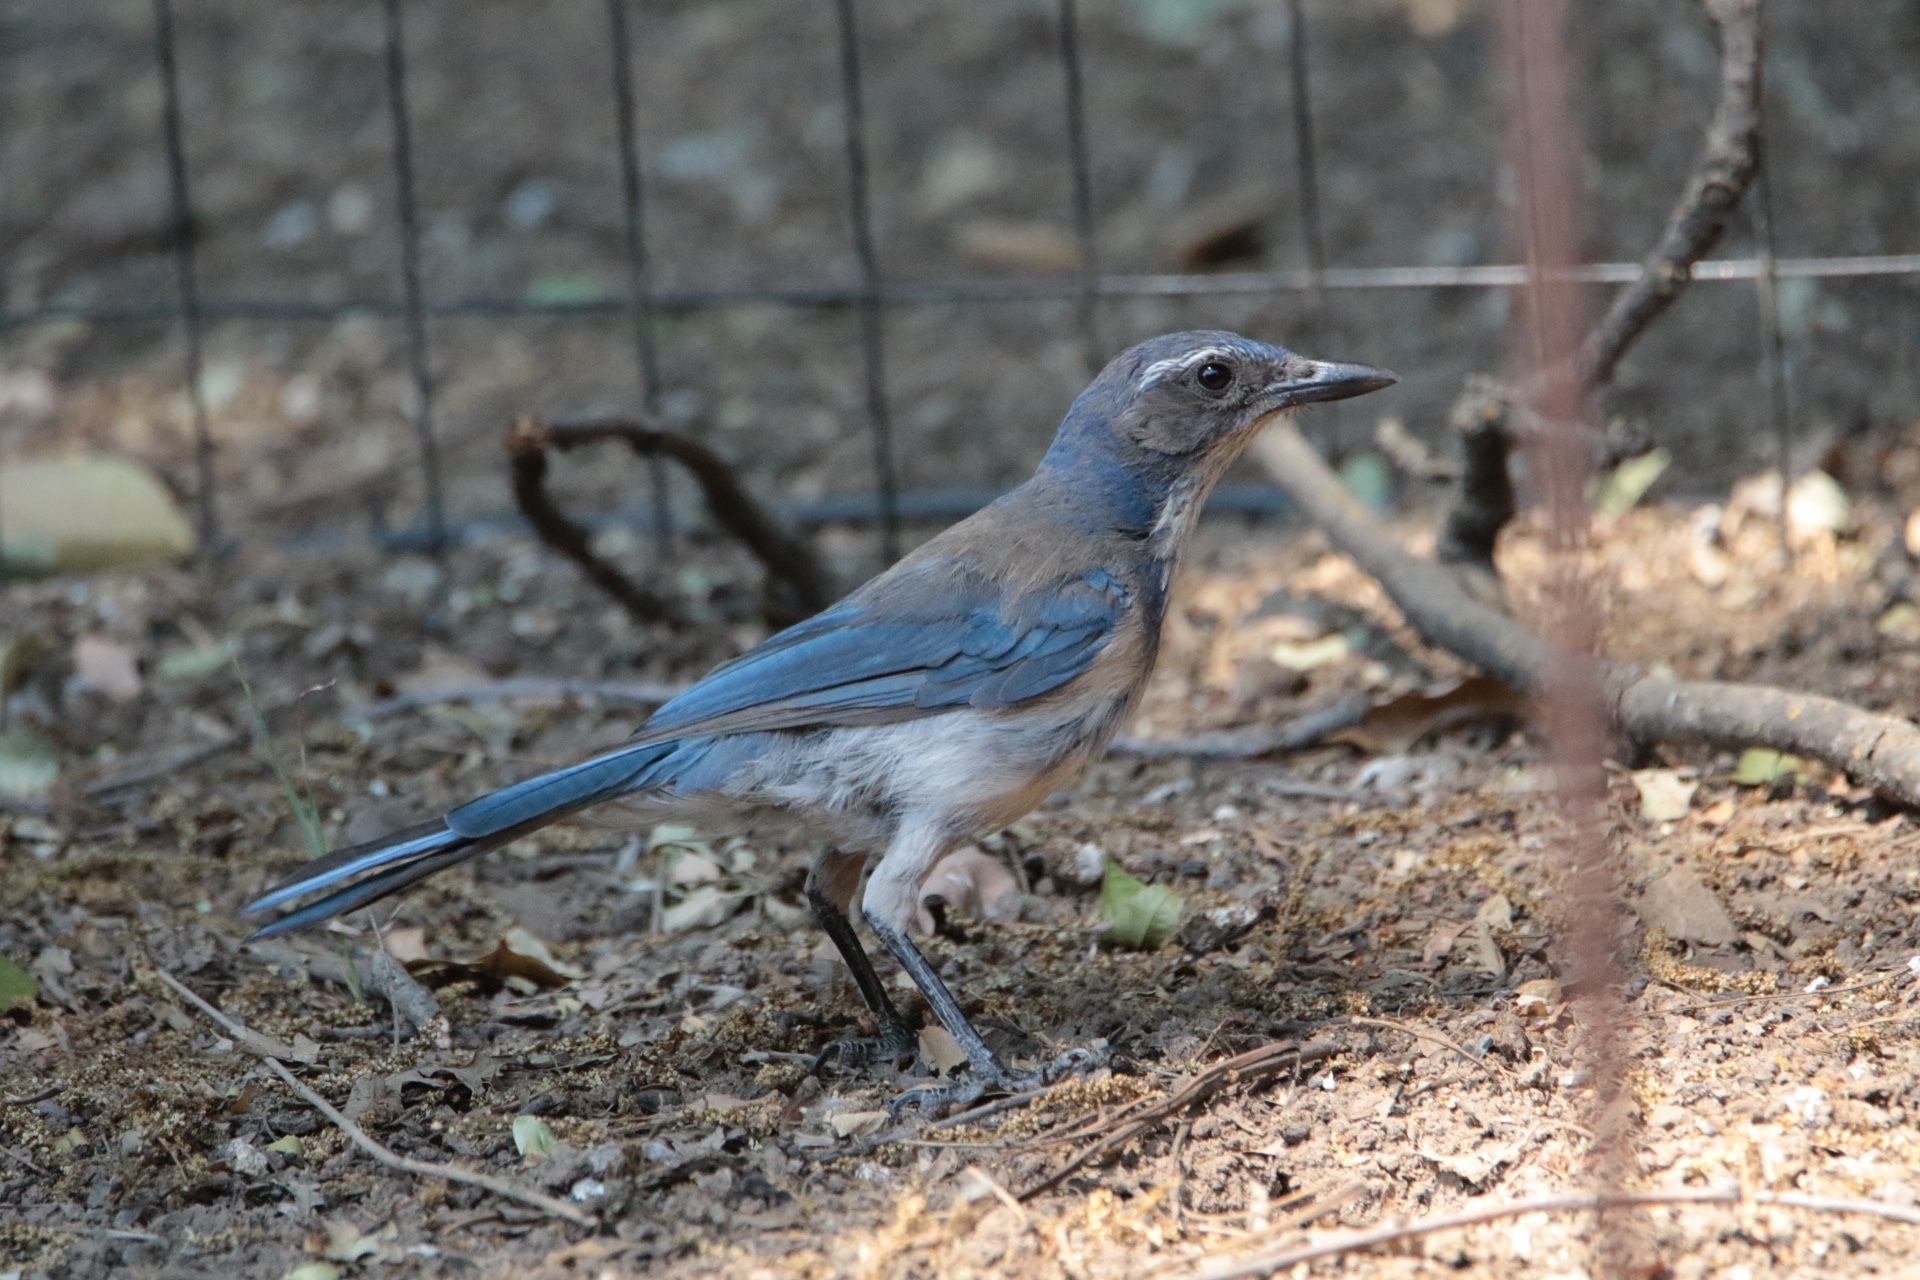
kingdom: Animalia
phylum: Chordata
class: Aves
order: Passeriformes
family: Corvidae
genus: Aphelocoma
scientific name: Aphelocoma californica
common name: California scrub-jay
